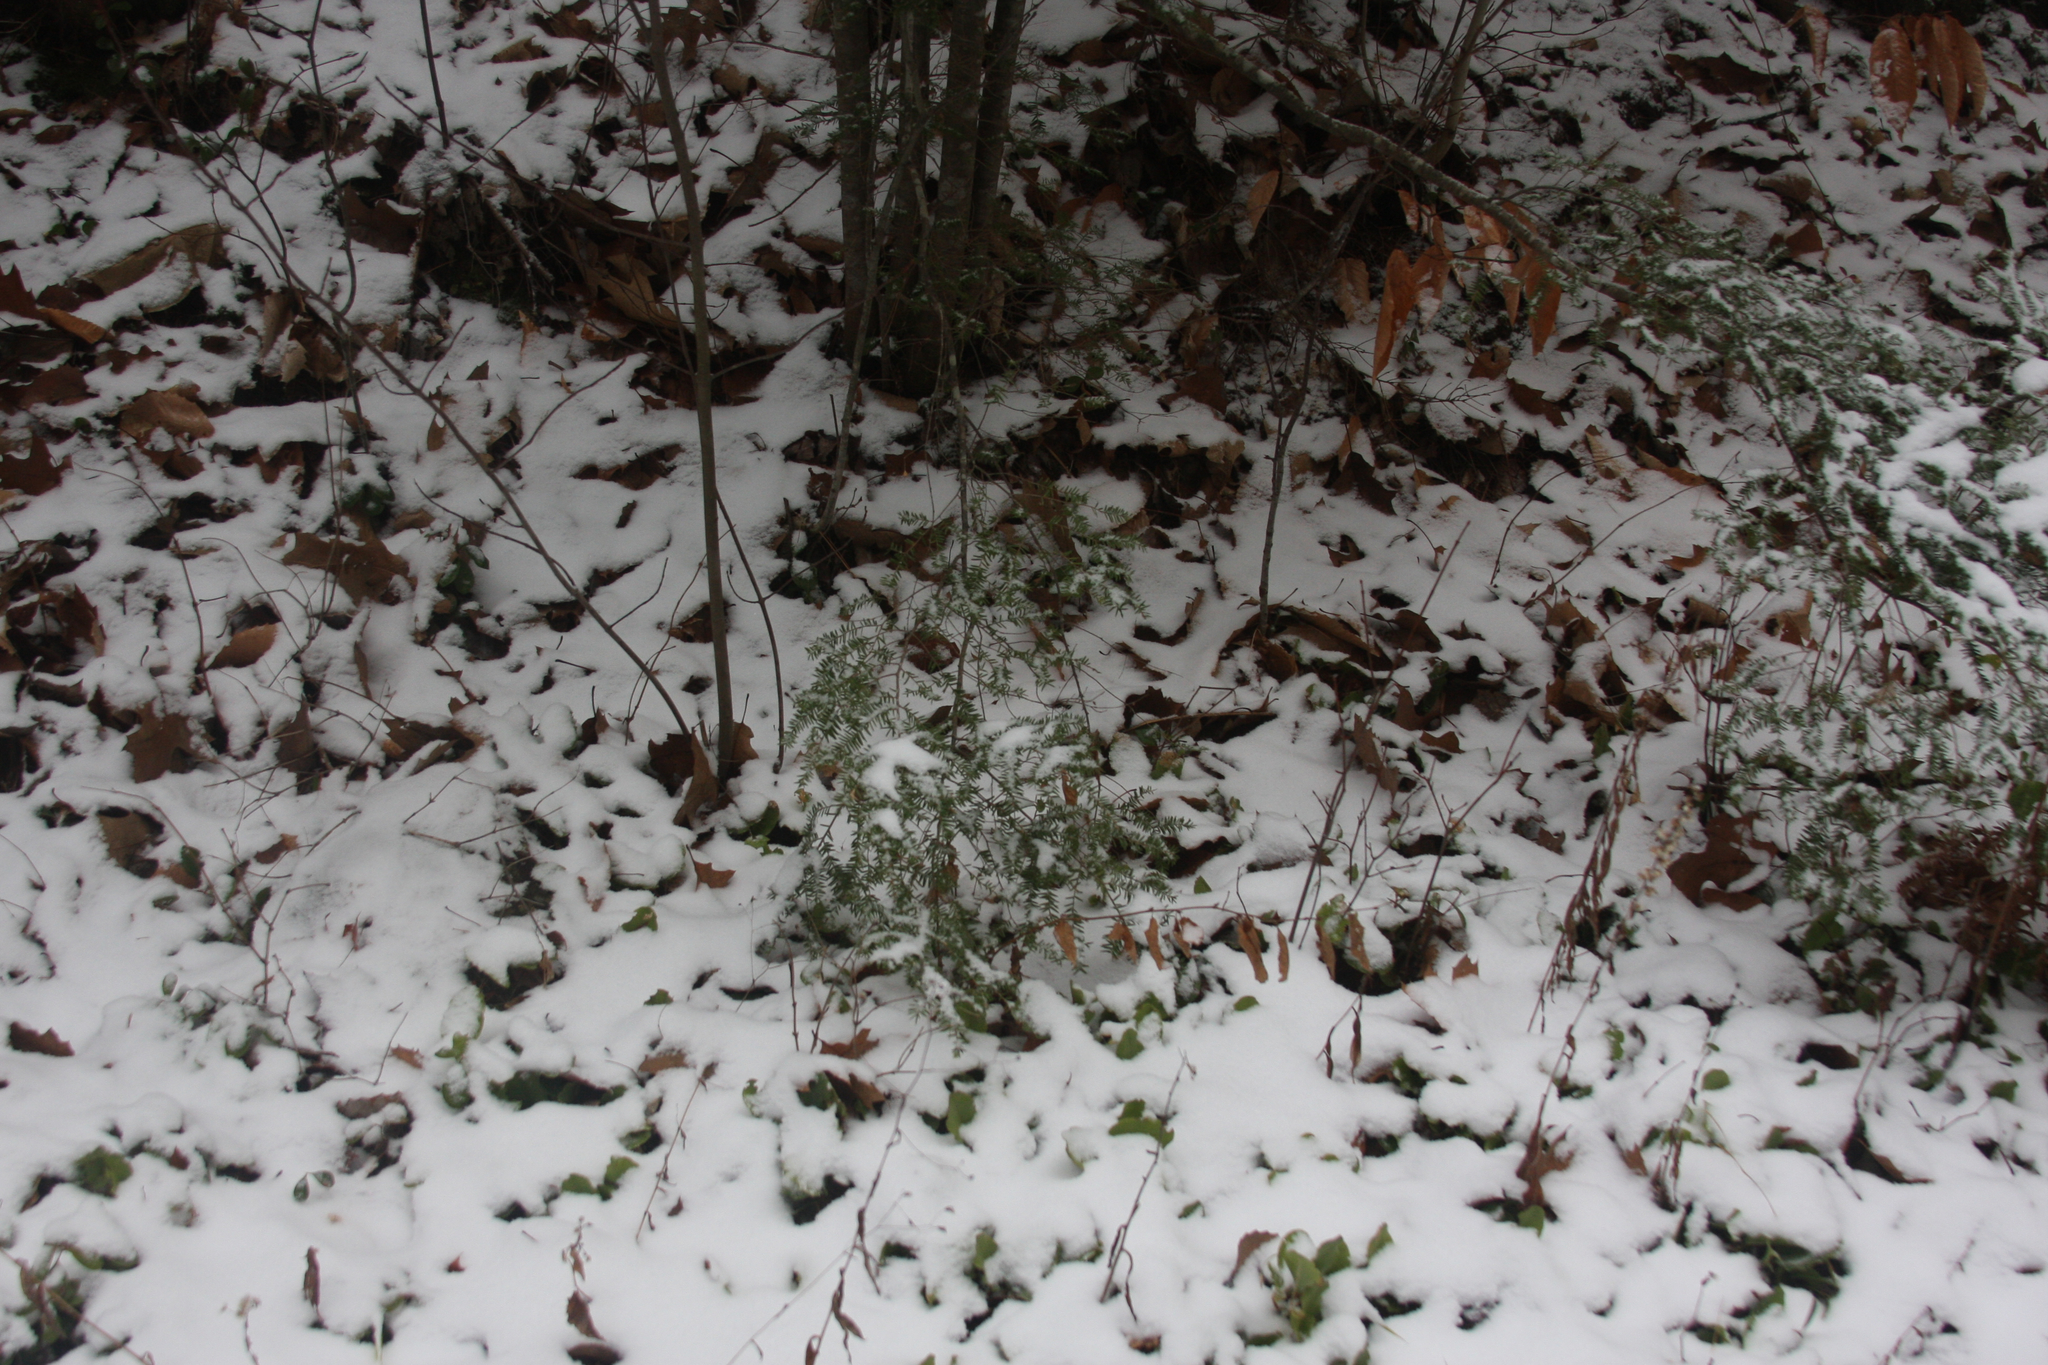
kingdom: Plantae
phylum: Tracheophyta
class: Pinopsida
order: Pinales
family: Pinaceae
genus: Tsuga
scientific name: Tsuga canadensis
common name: Eastern hemlock
